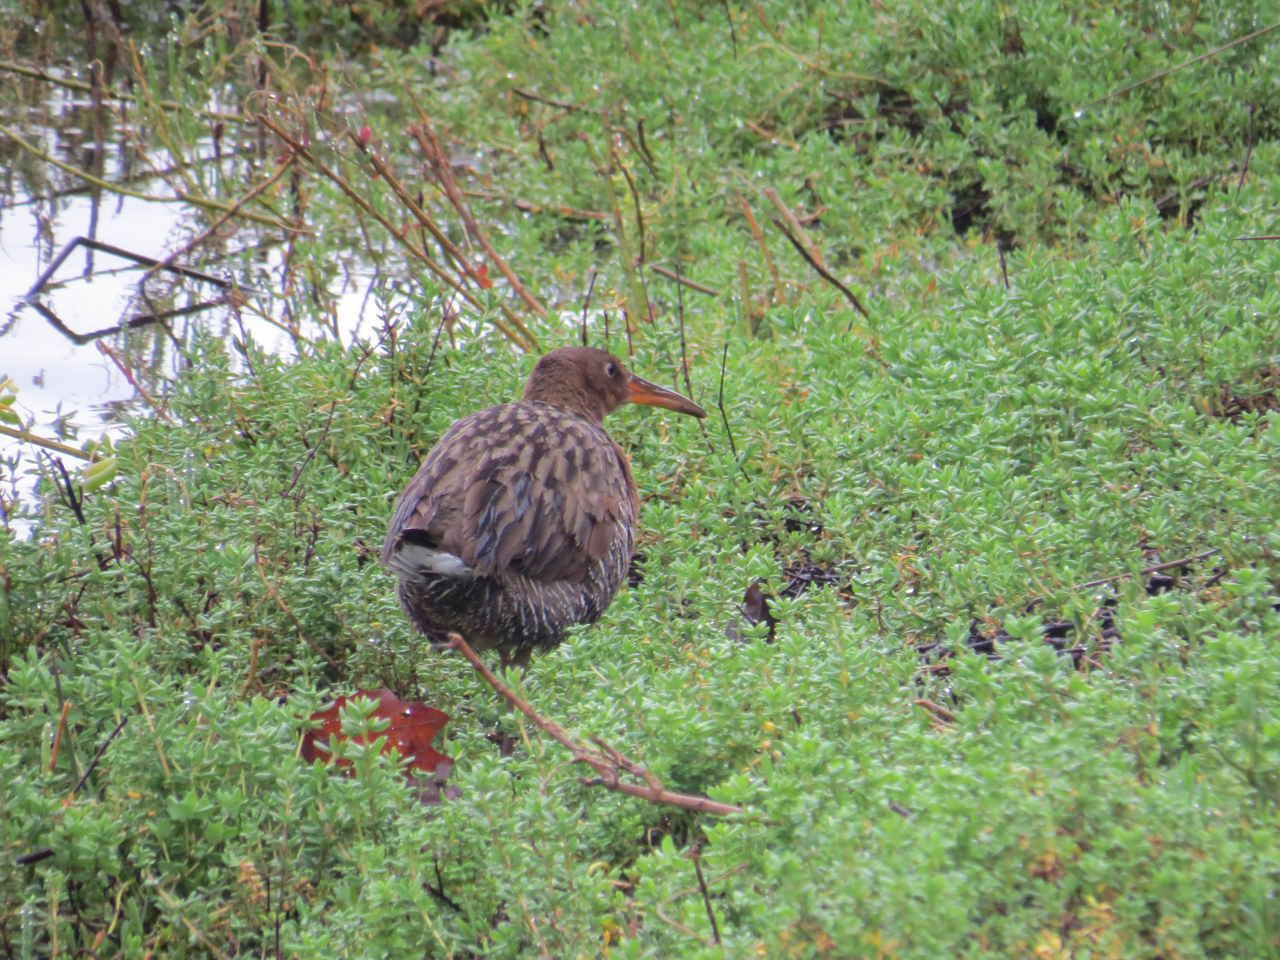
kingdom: Animalia
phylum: Chordata
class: Aves
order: Gruiformes
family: Rallidae
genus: Rallus
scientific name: Rallus obsoletus
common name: Ridgway's rail
